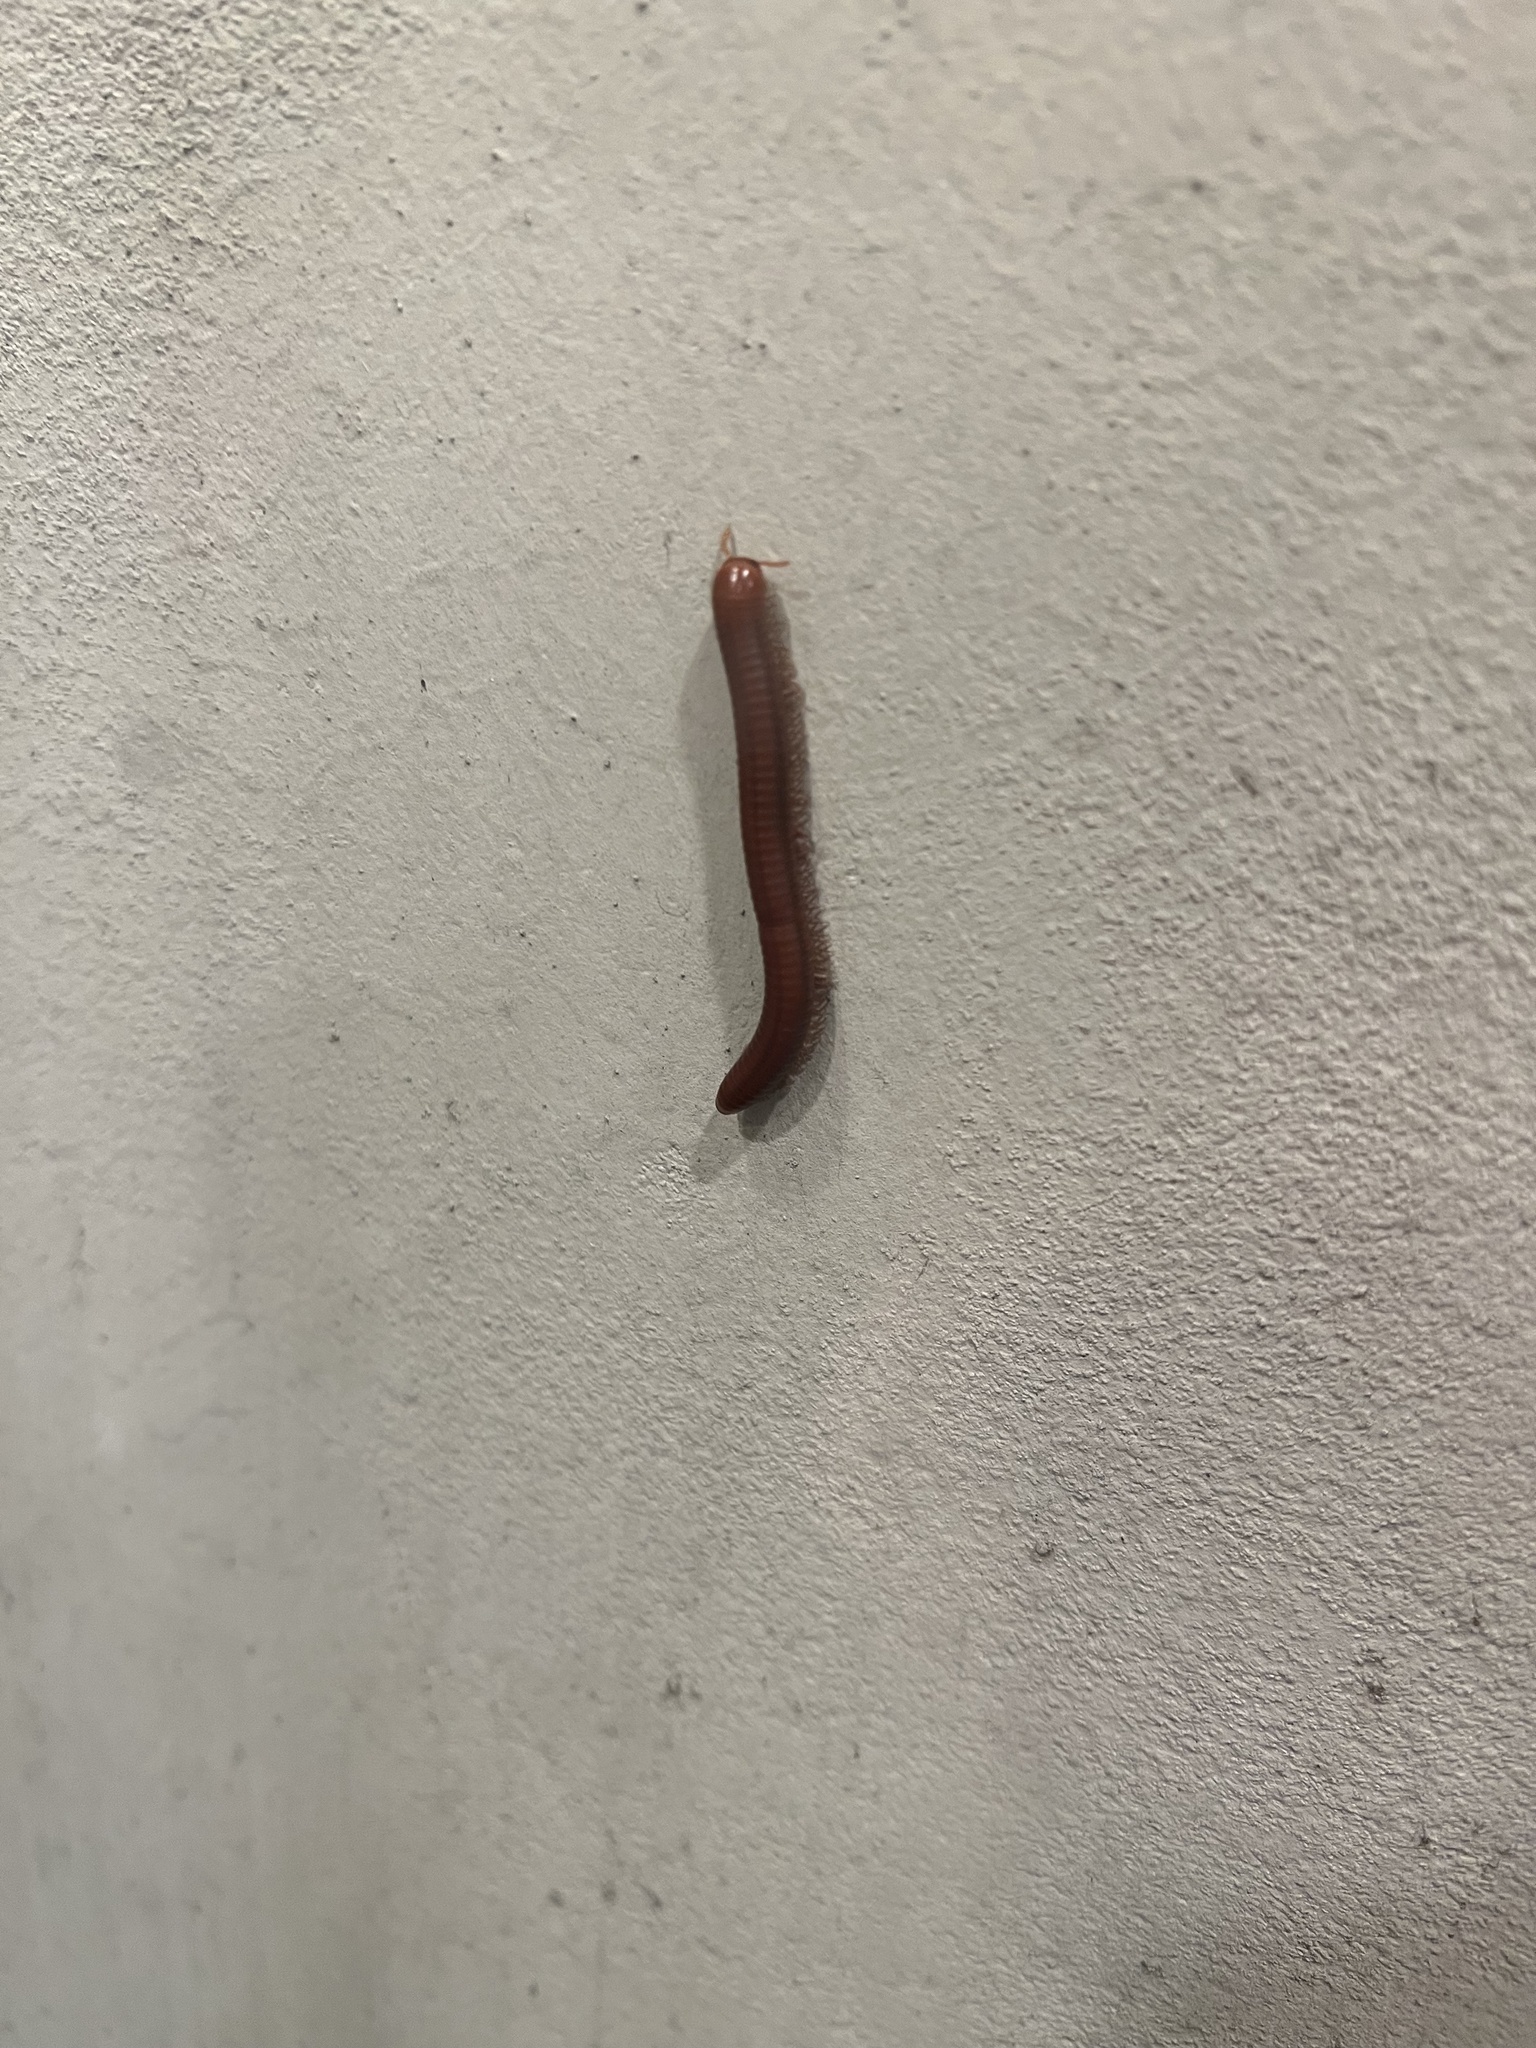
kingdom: Animalia
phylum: Arthropoda
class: Diplopoda
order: Spirobolida
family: Pachybolidae
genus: Trigoniulus
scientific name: Trigoniulus corallinus
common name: Millipede
